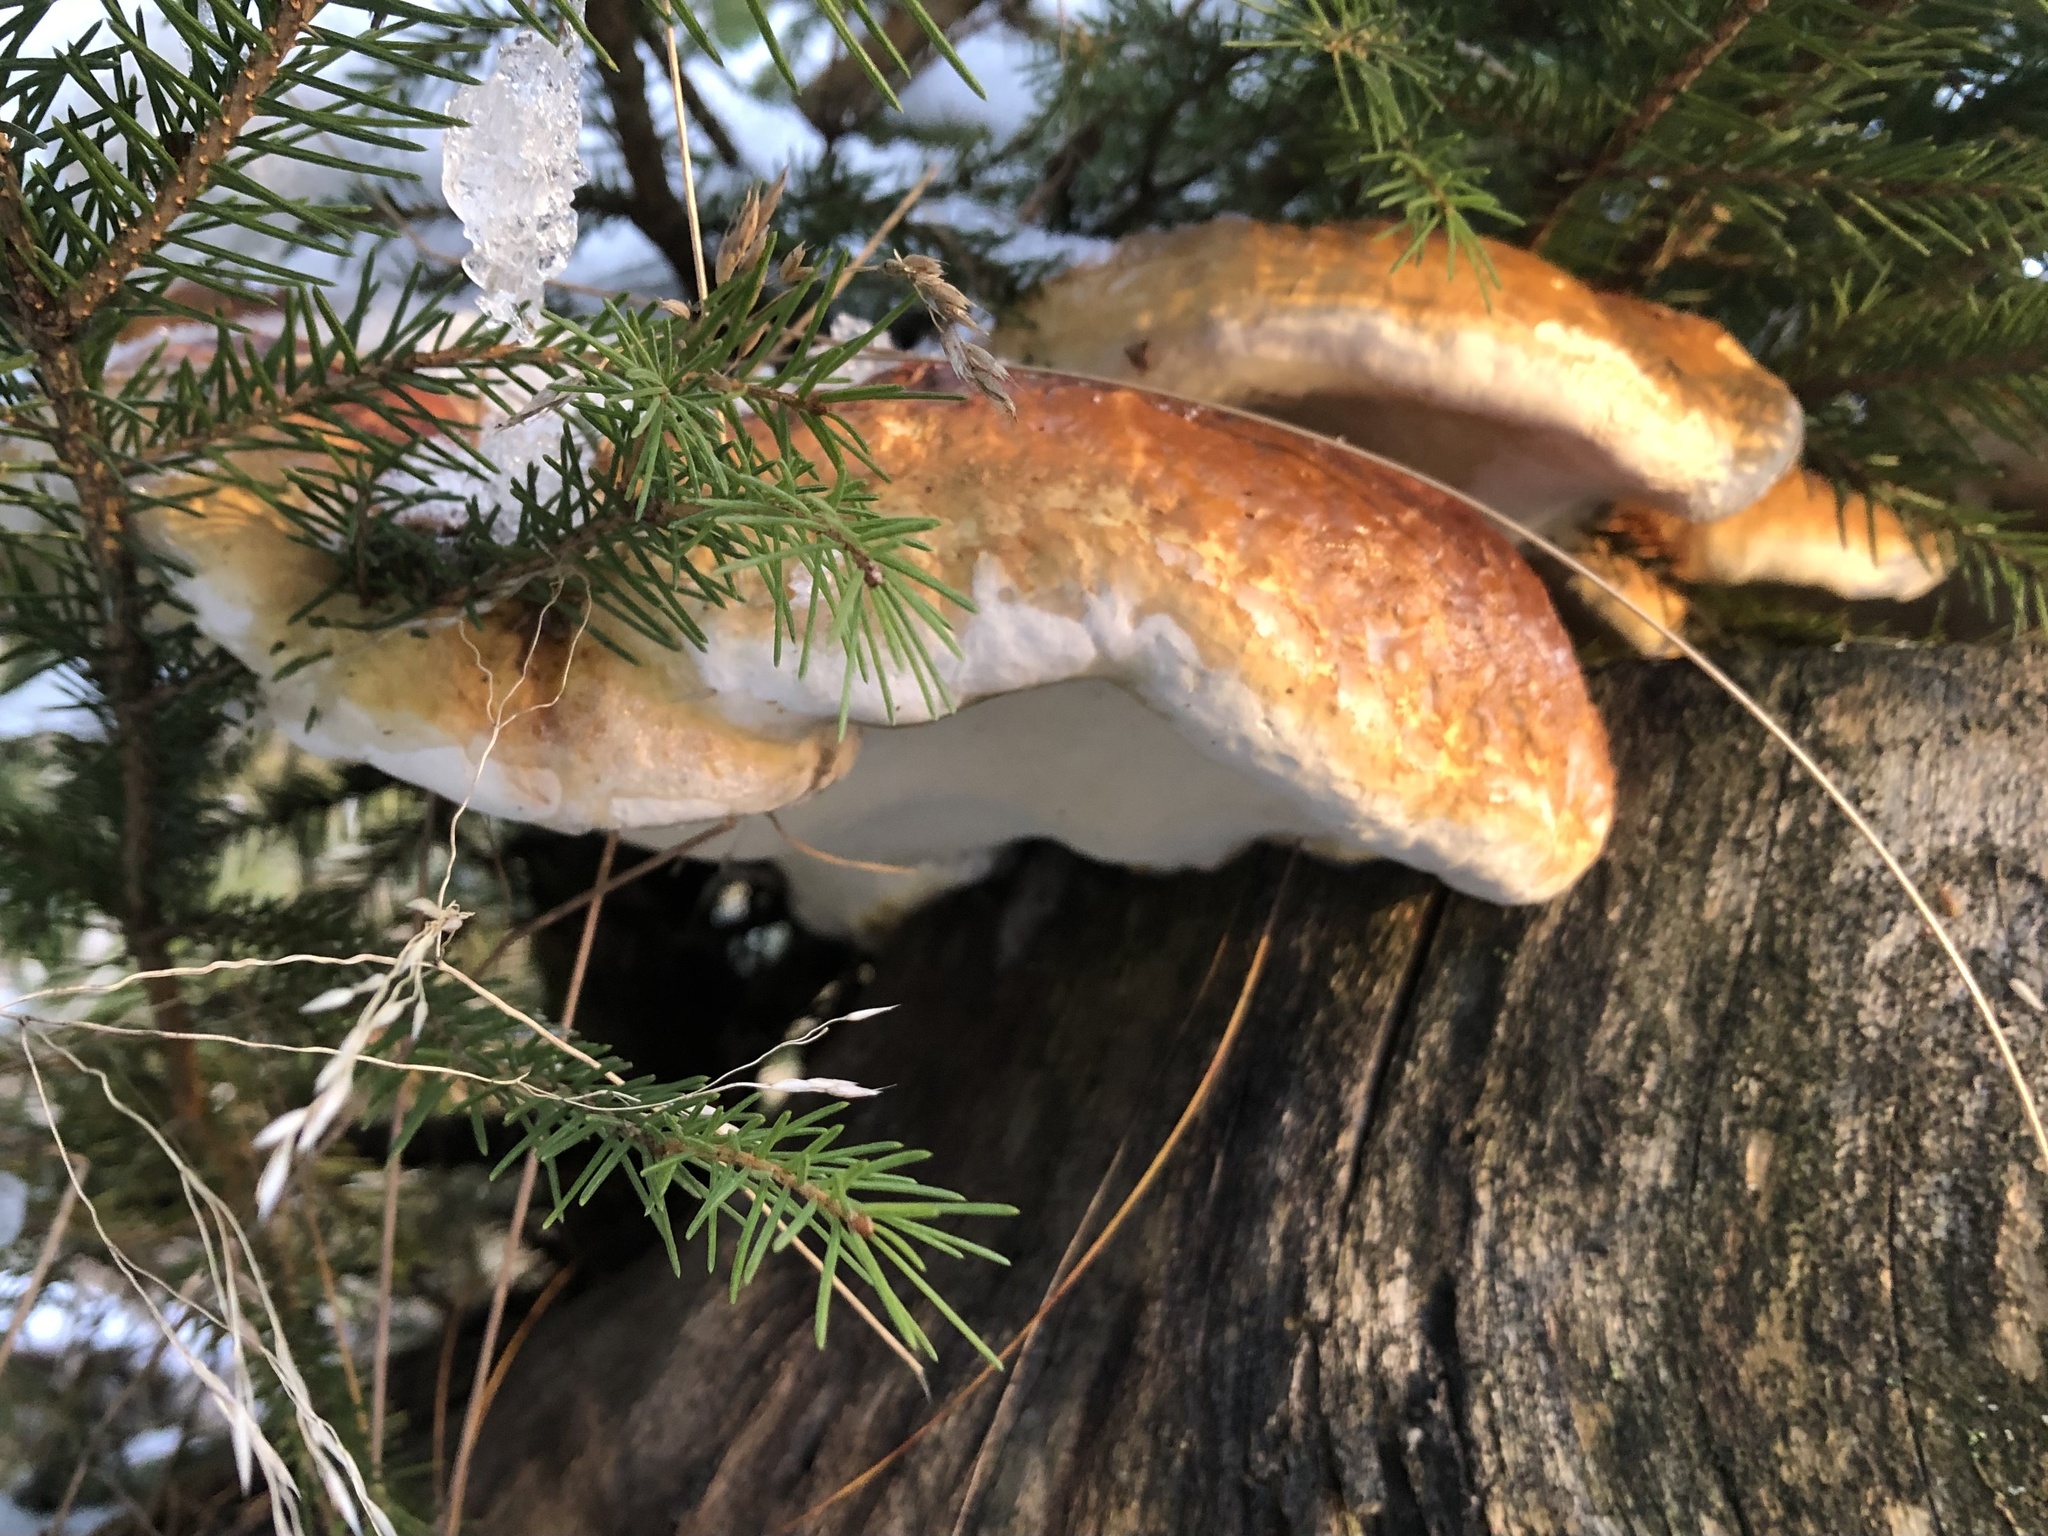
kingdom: Fungi
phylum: Basidiomycota
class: Agaricomycetes
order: Polyporales
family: Fomitopsidaceae
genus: Fomitopsis
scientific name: Fomitopsis pinicola
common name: Red-belted bracket
